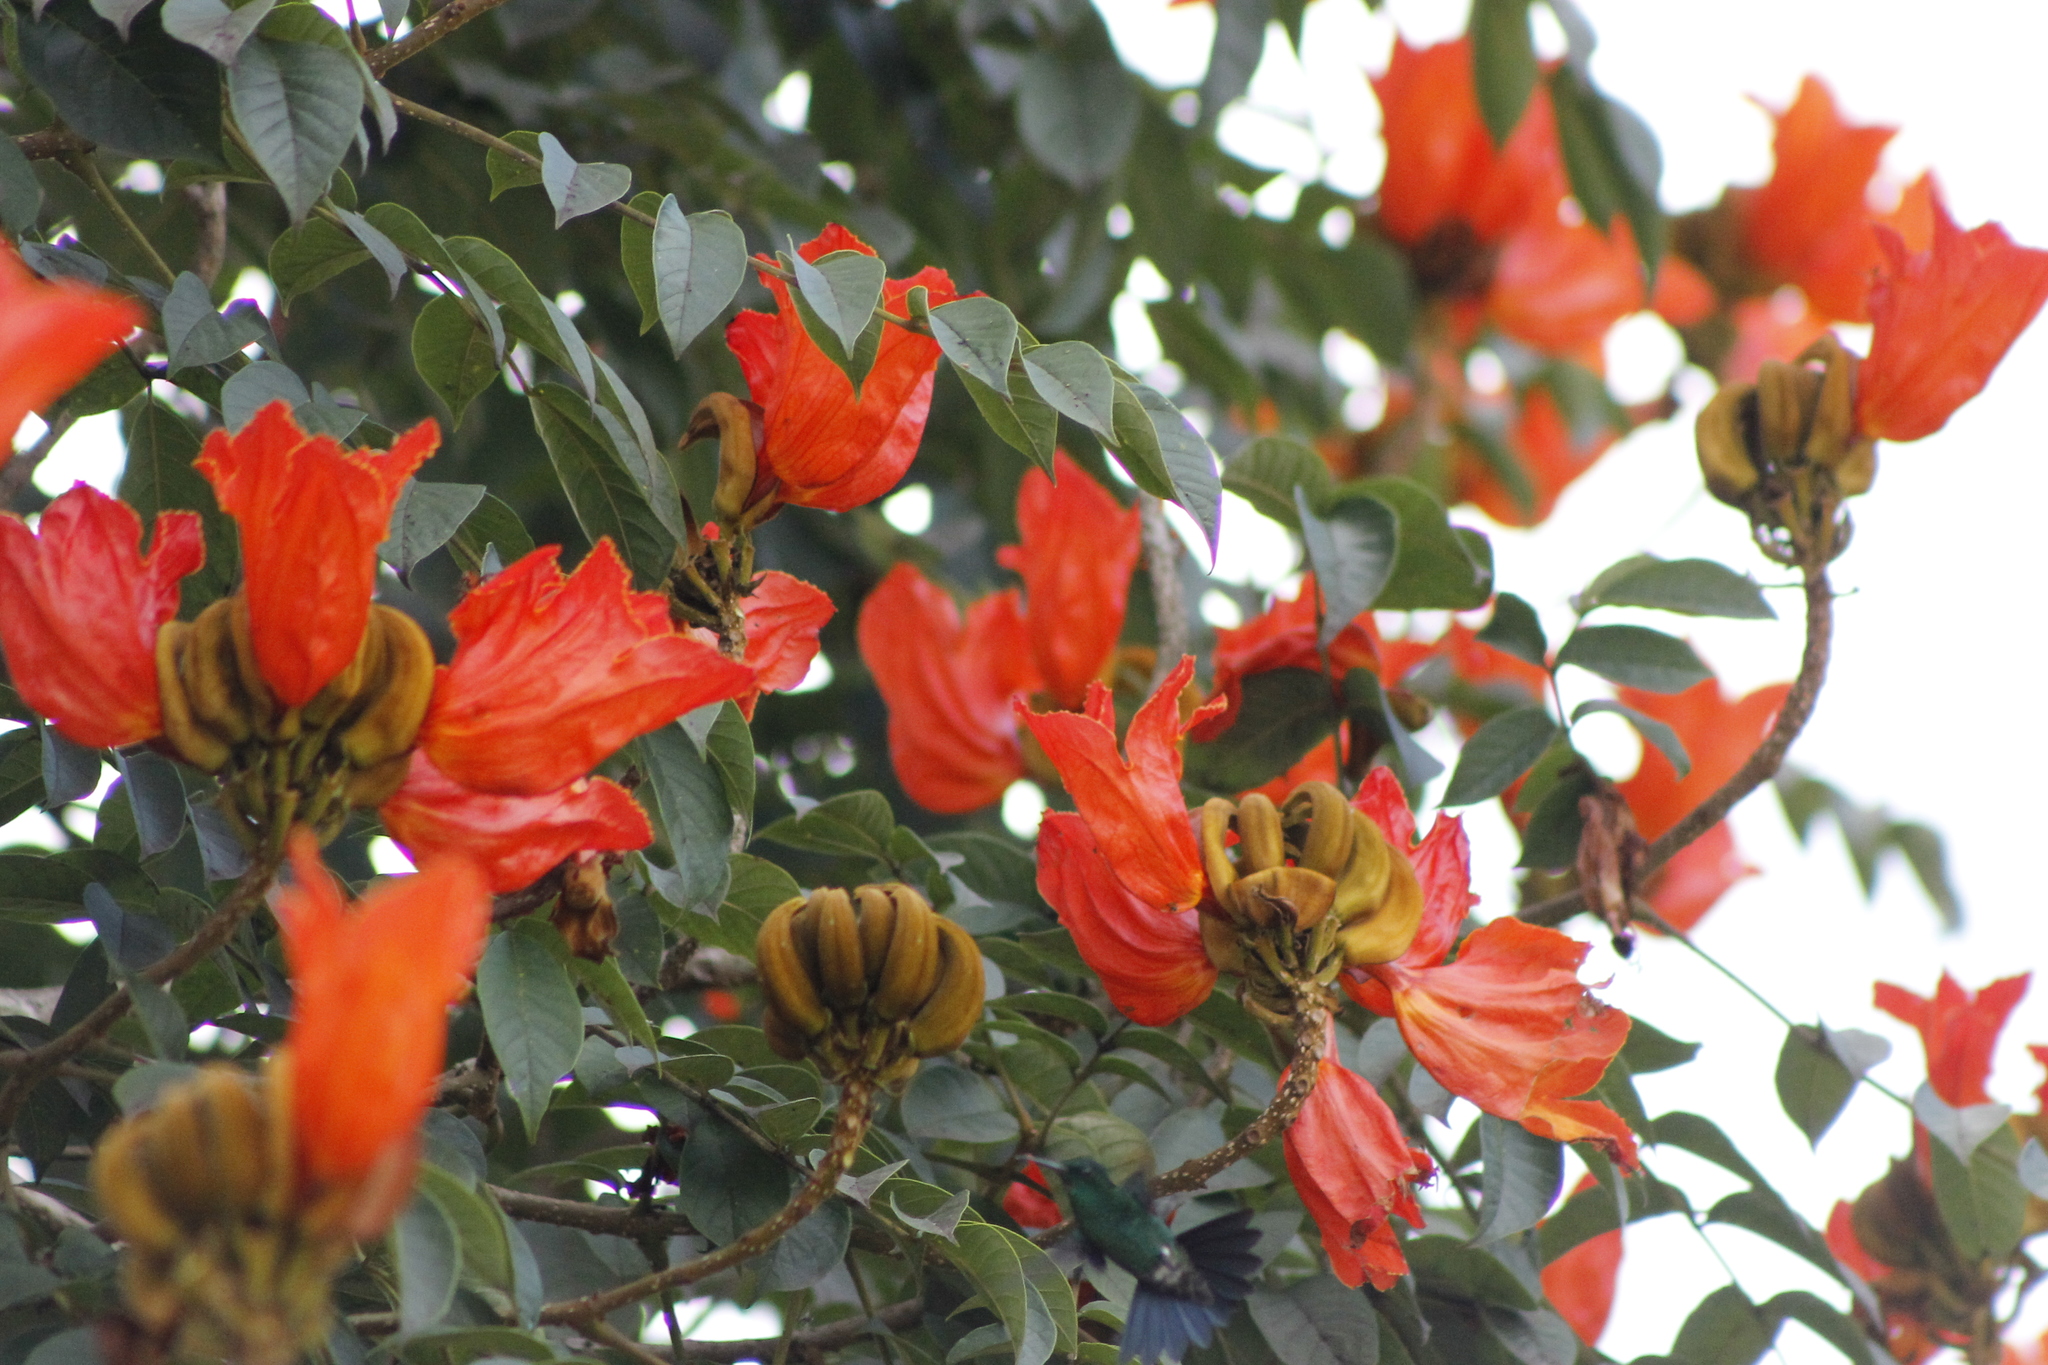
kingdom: Plantae
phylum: Tracheophyta
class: Magnoliopsida
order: Lamiales
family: Bignoniaceae
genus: Spathodea
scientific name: Spathodea campanulata
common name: African tuliptree
